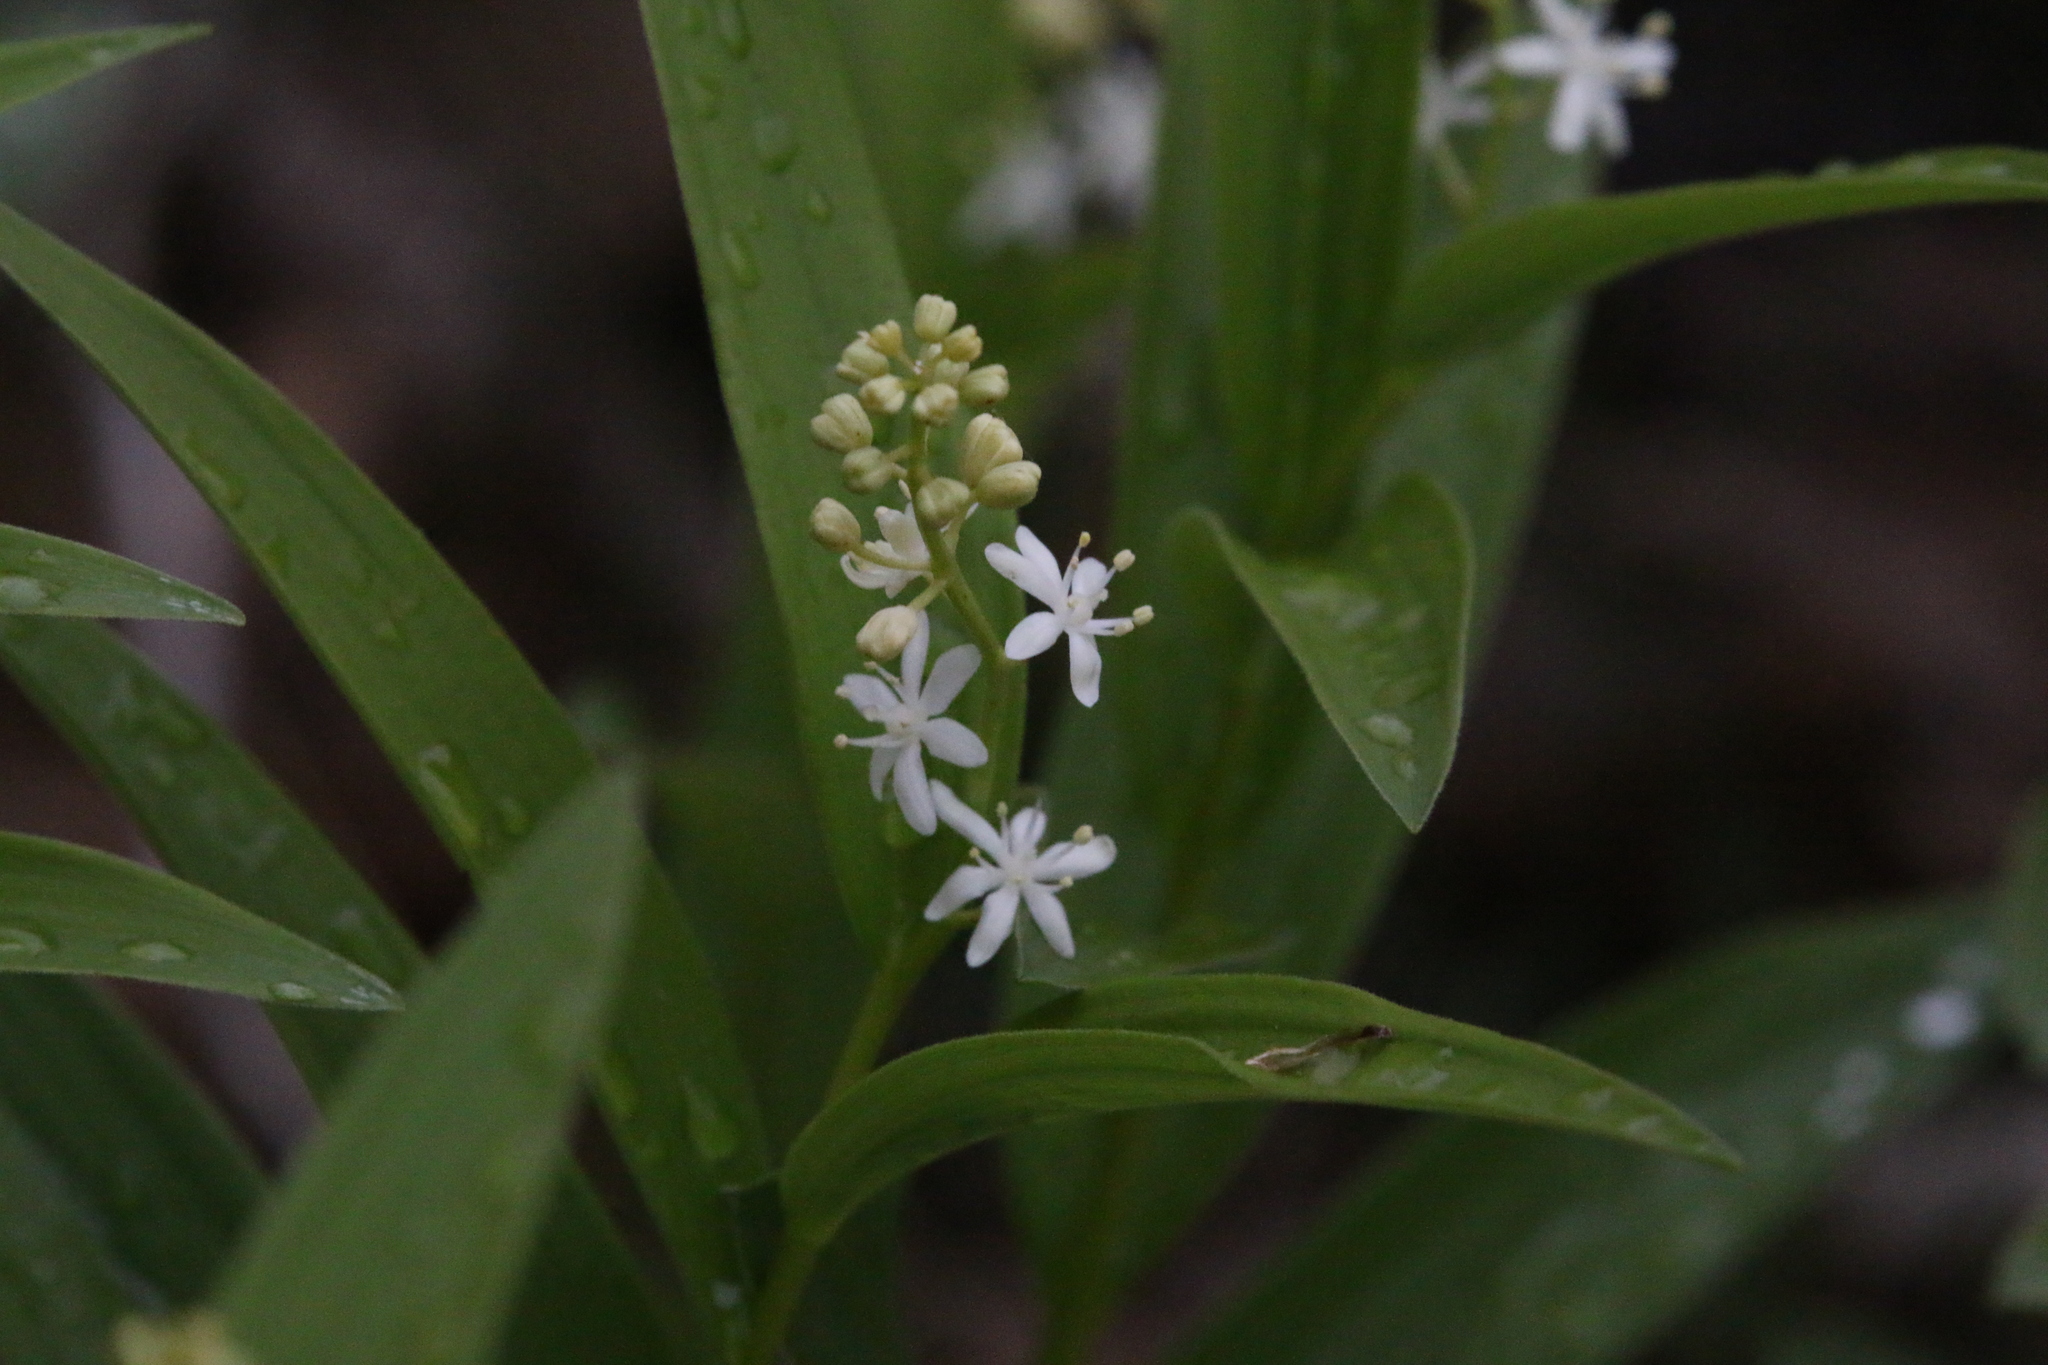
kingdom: Plantae
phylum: Tracheophyta
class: Liliopsida
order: Asparagales
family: Asparagaceae
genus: Maianthemum
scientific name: Maianthemum stellatum
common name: Little false solomon's seal
